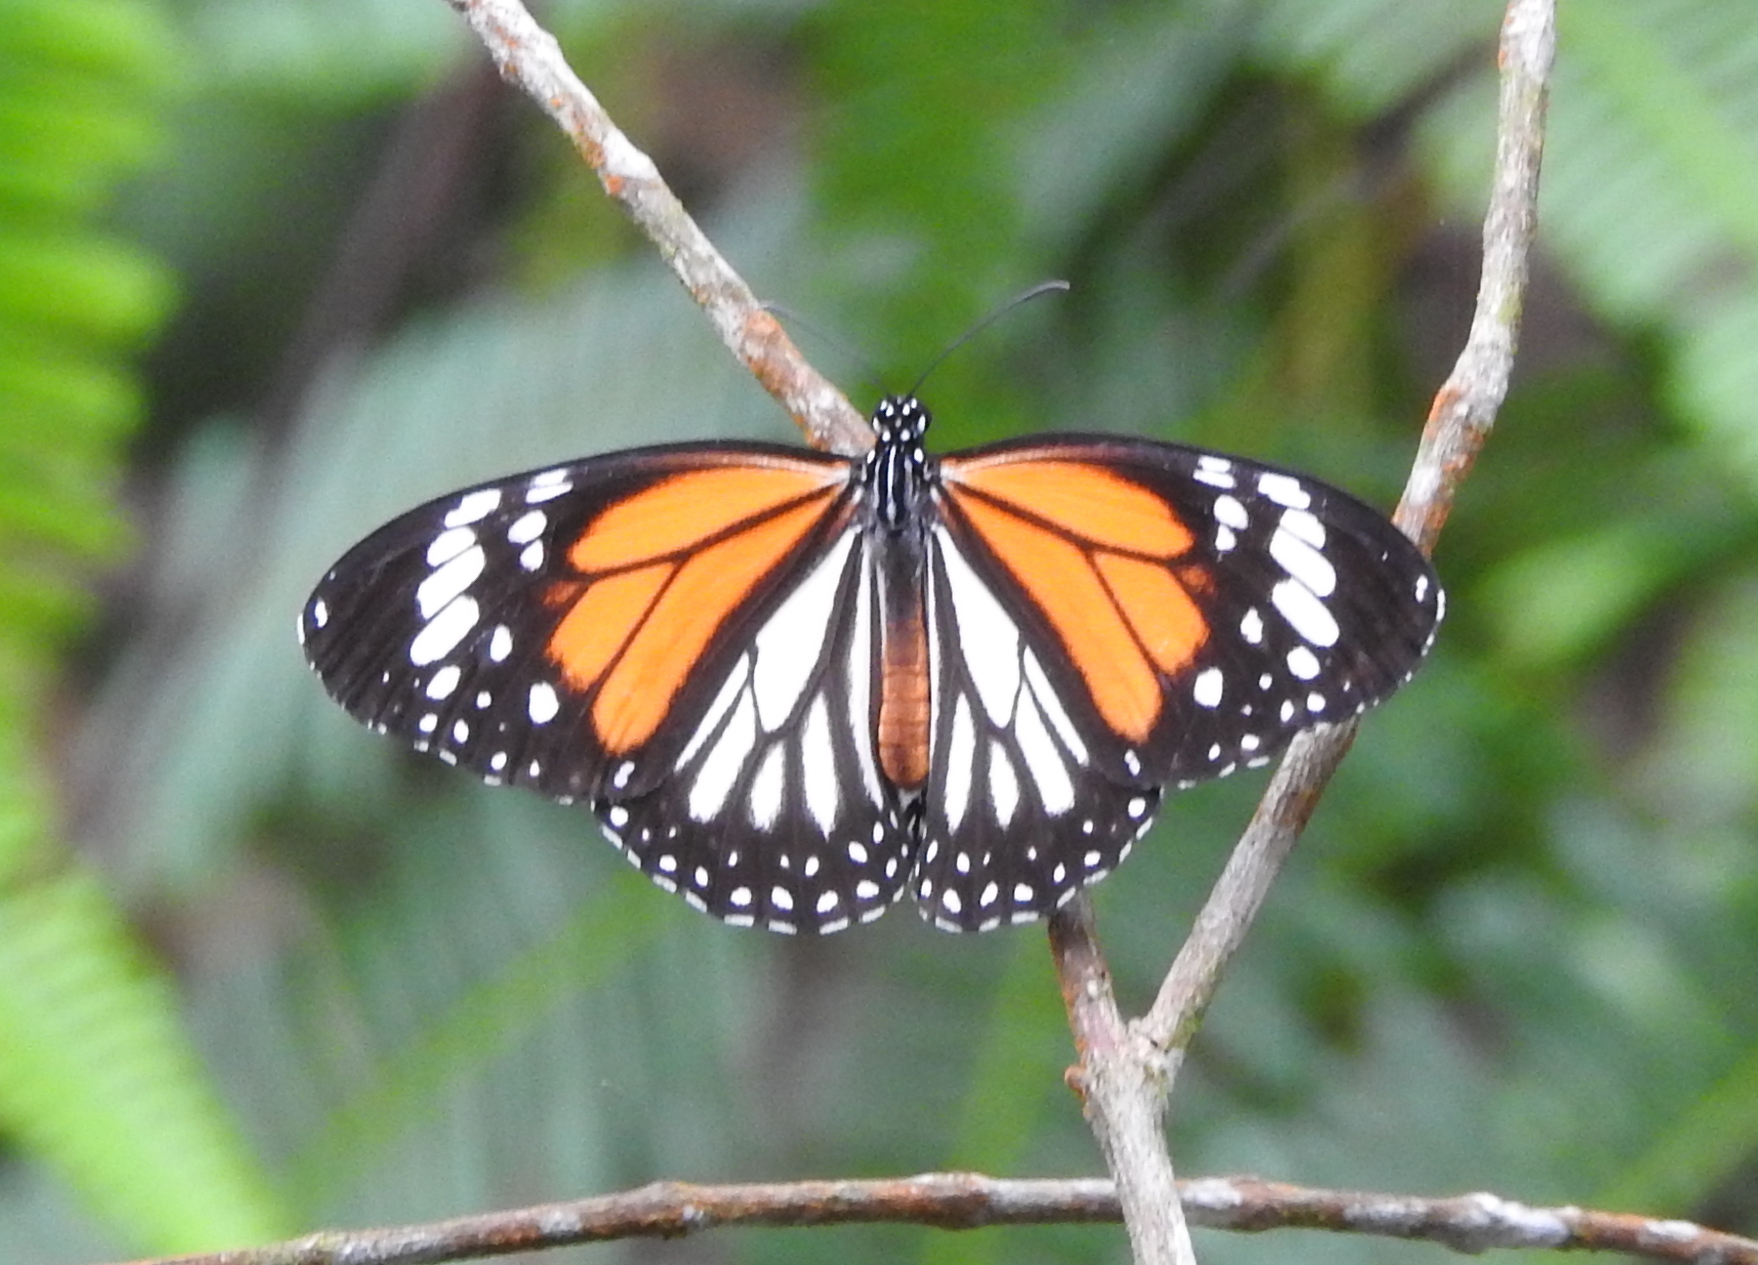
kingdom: Animalia
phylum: Arthropoda
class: Insecta
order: Lepidoptera
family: Nymphalidae
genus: Danaus
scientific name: Danaus melanippus
